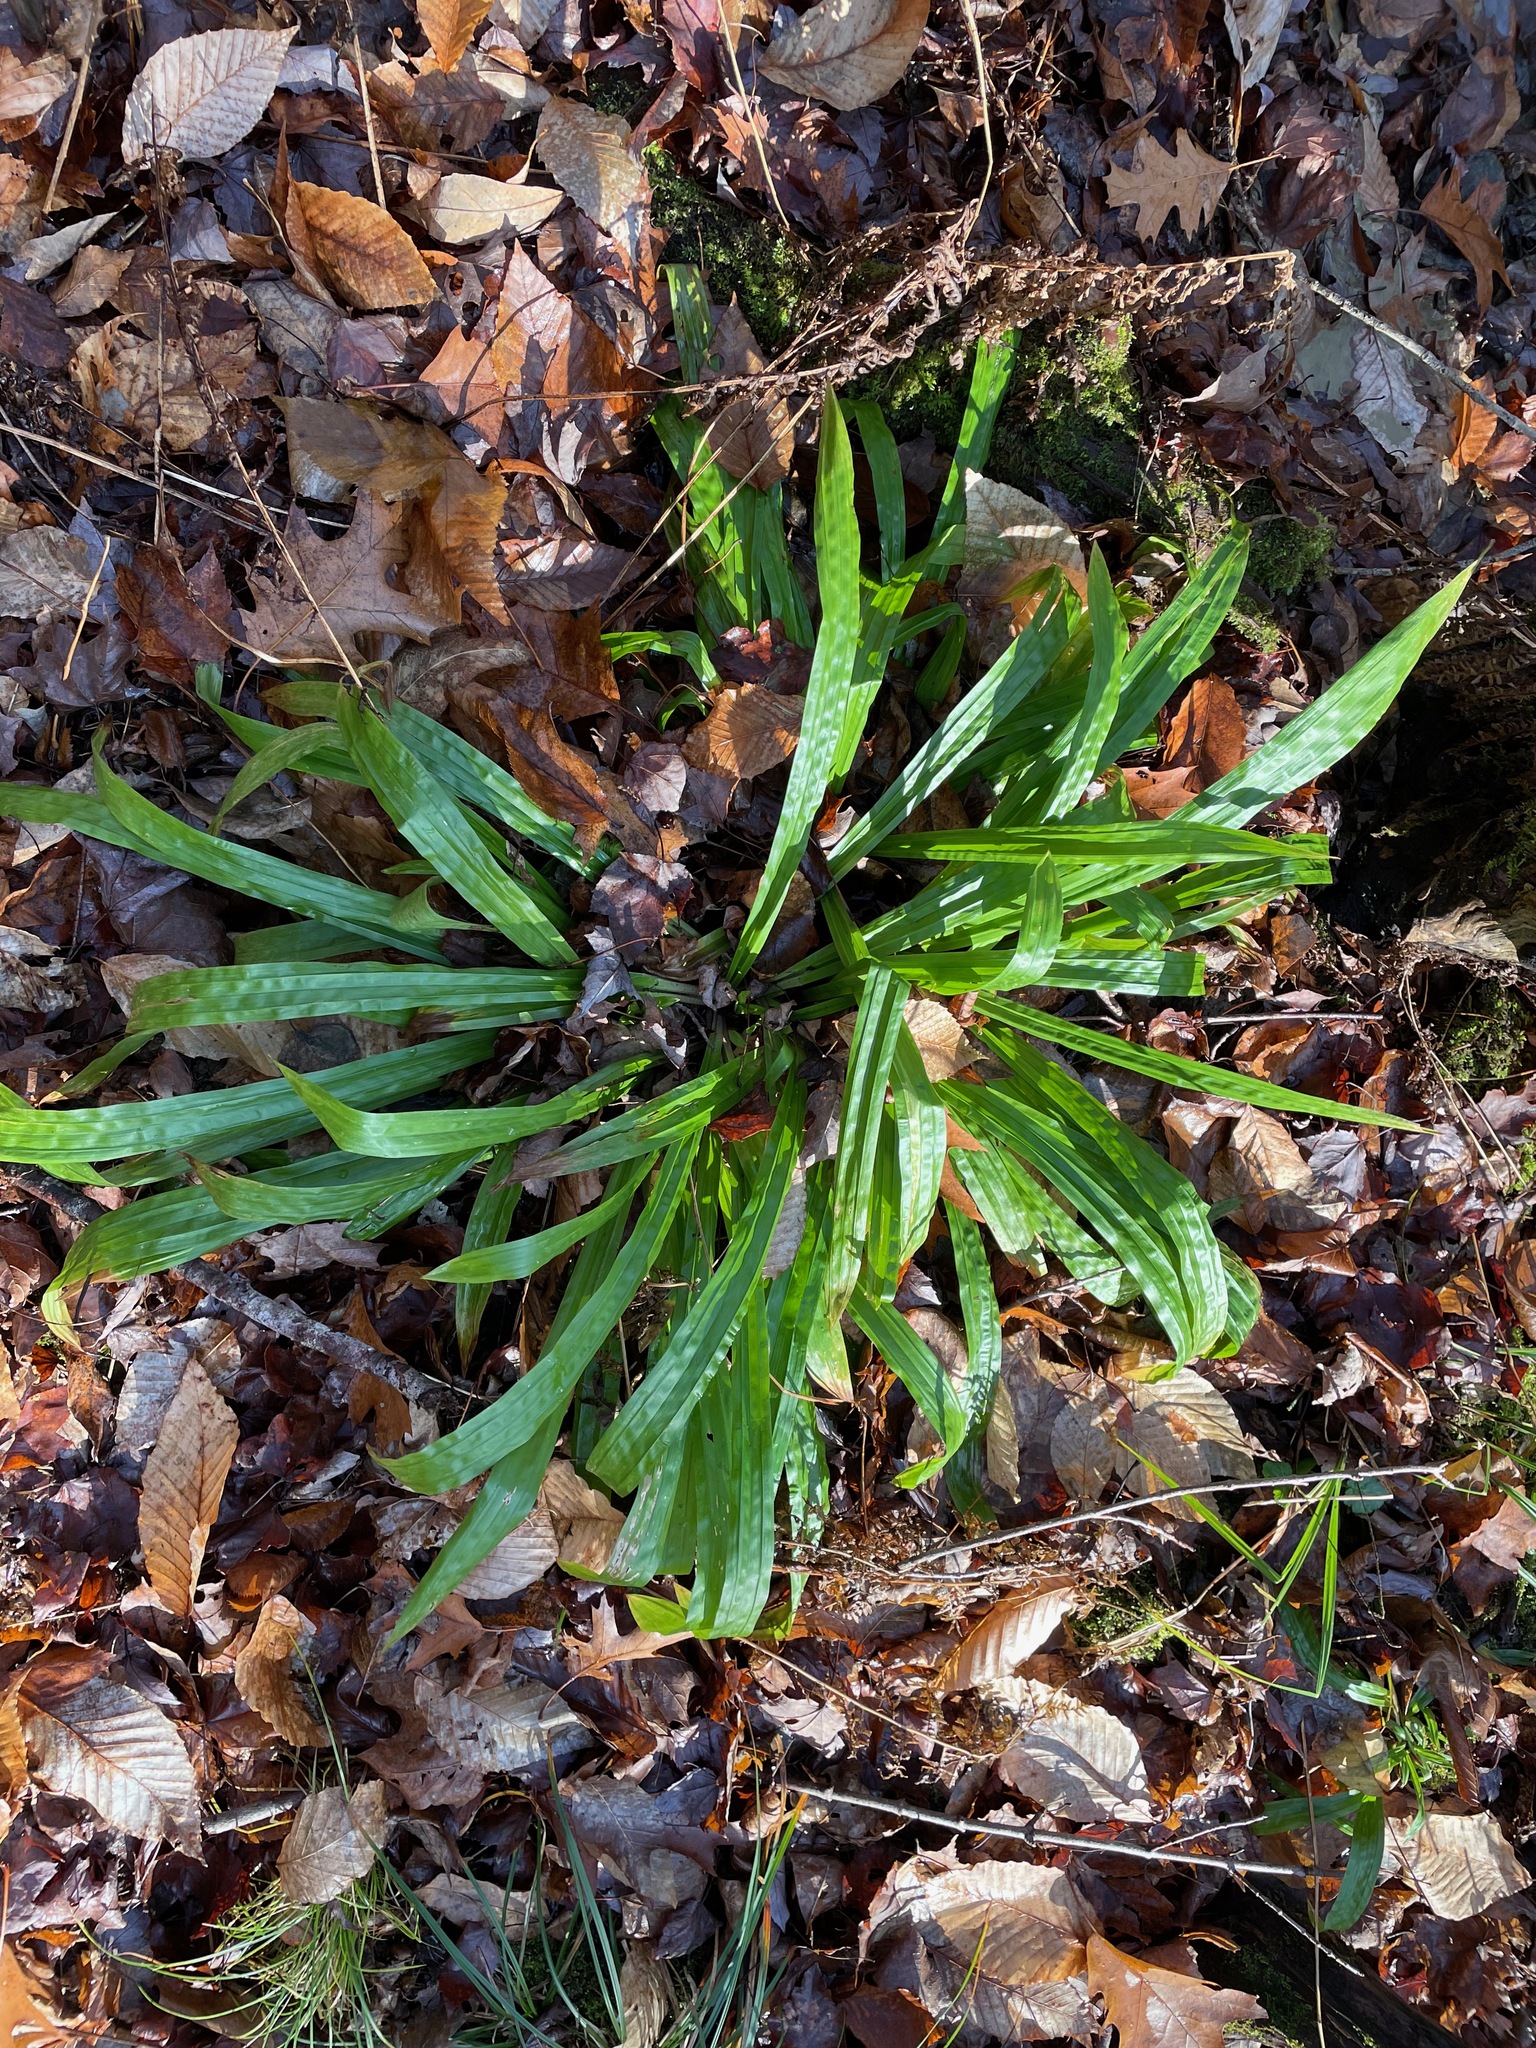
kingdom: Plantae
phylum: Tracheophyta
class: Liliopsida
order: Poales
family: Cyperaceae
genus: Carex
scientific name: Carex plantaginea
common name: Plantain-leaved sedge
